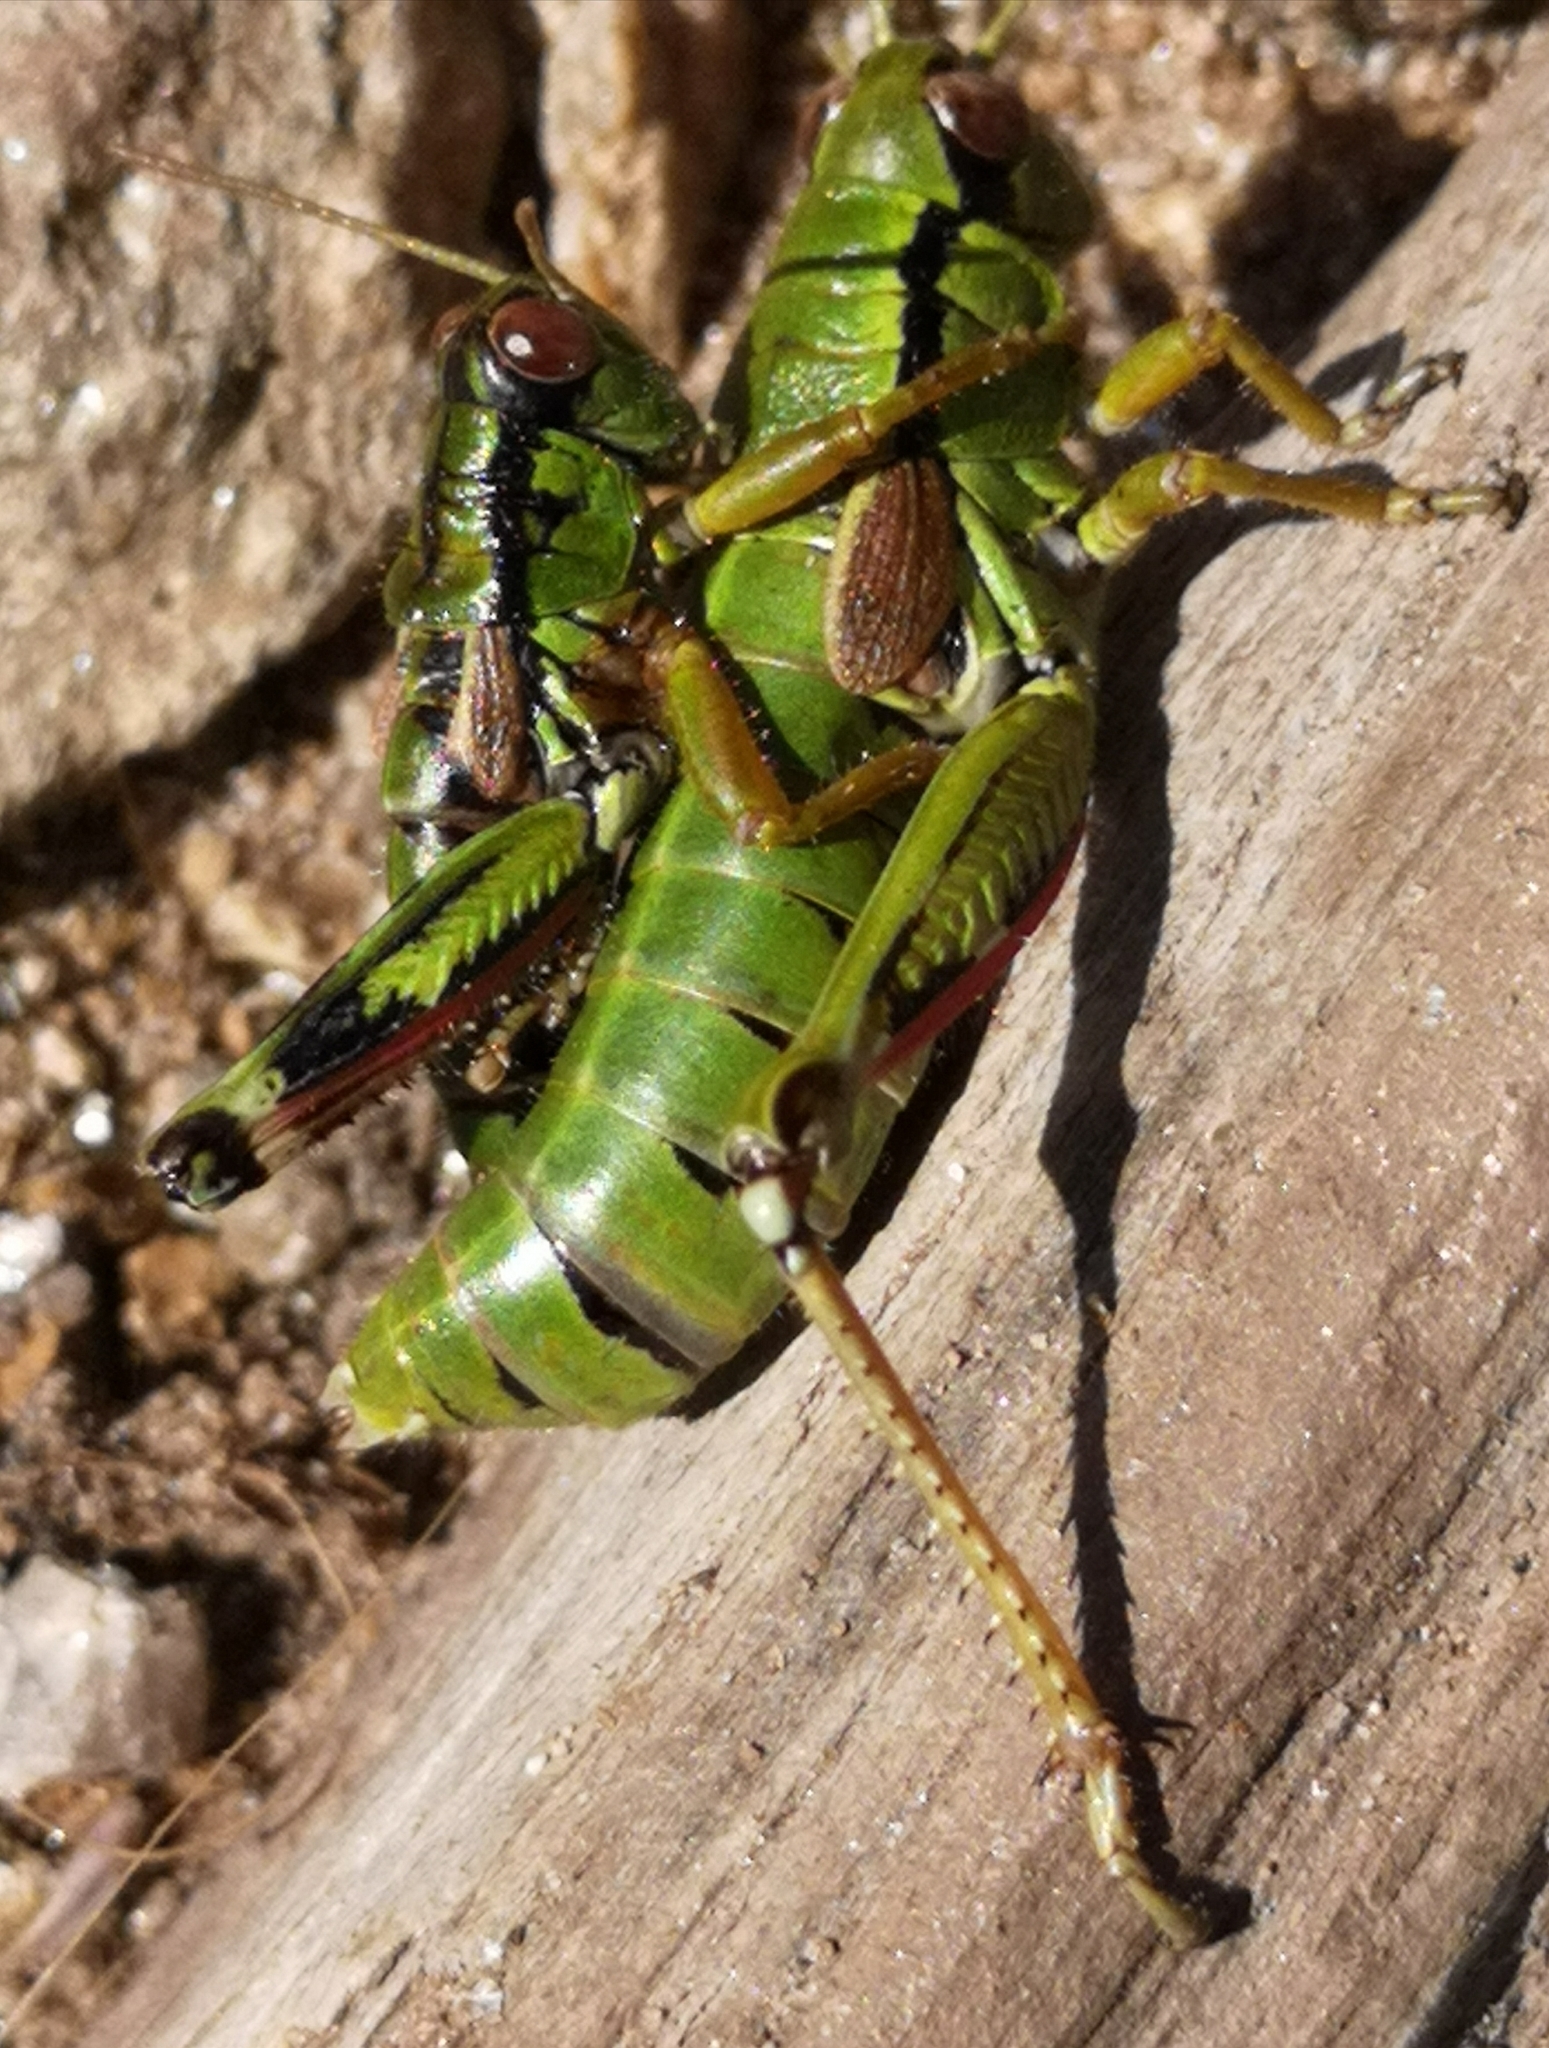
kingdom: Animalia
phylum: Arthropoda
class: Insecta
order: Orthoptera
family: Acrididae
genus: Miramella
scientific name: Miramella carinthiaca
